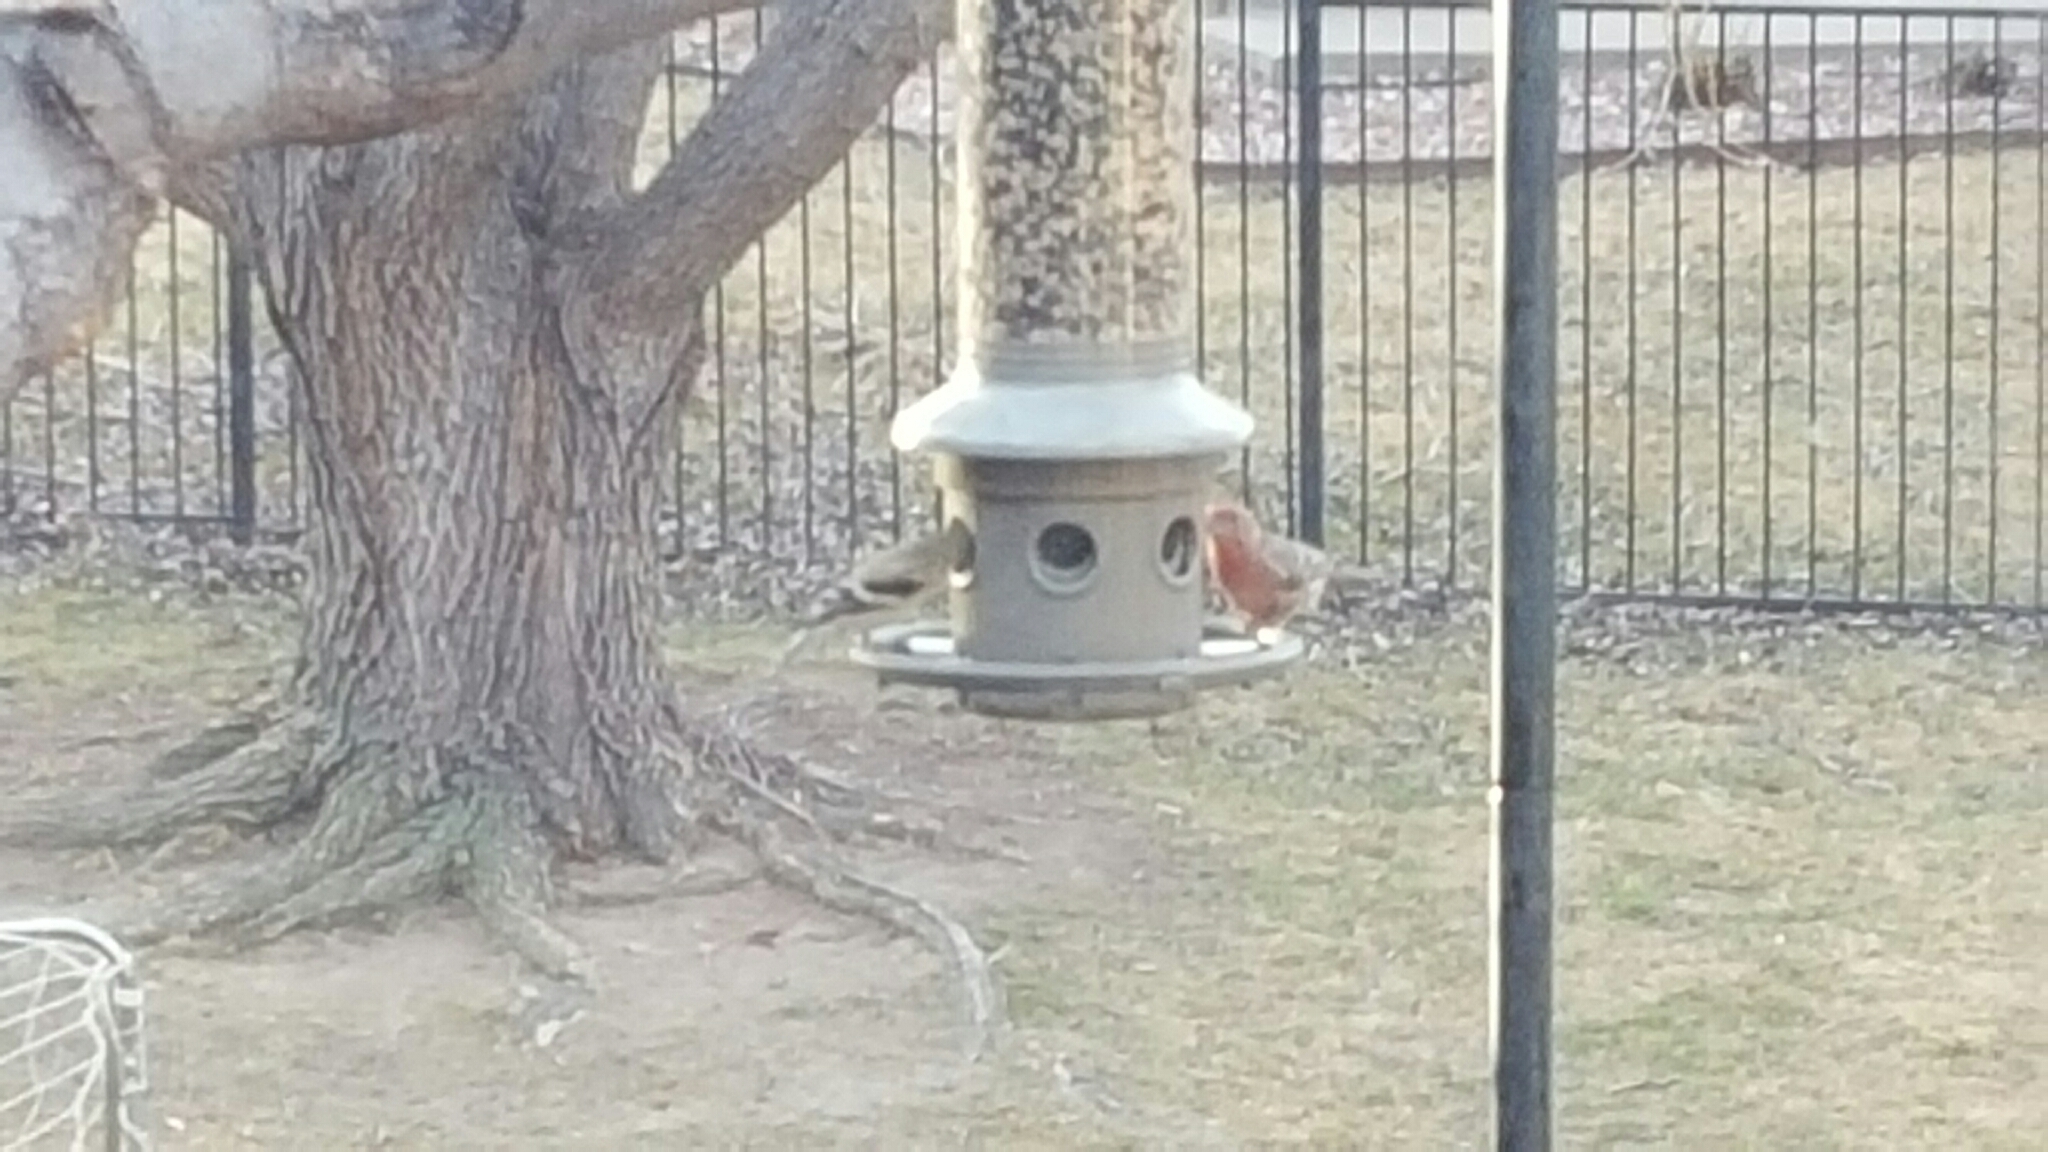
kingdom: Animalia
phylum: Chordata
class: Aves
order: Passeriformes
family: Fringillidae
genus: Spinus
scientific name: Spinus tristis
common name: American goldfinch
